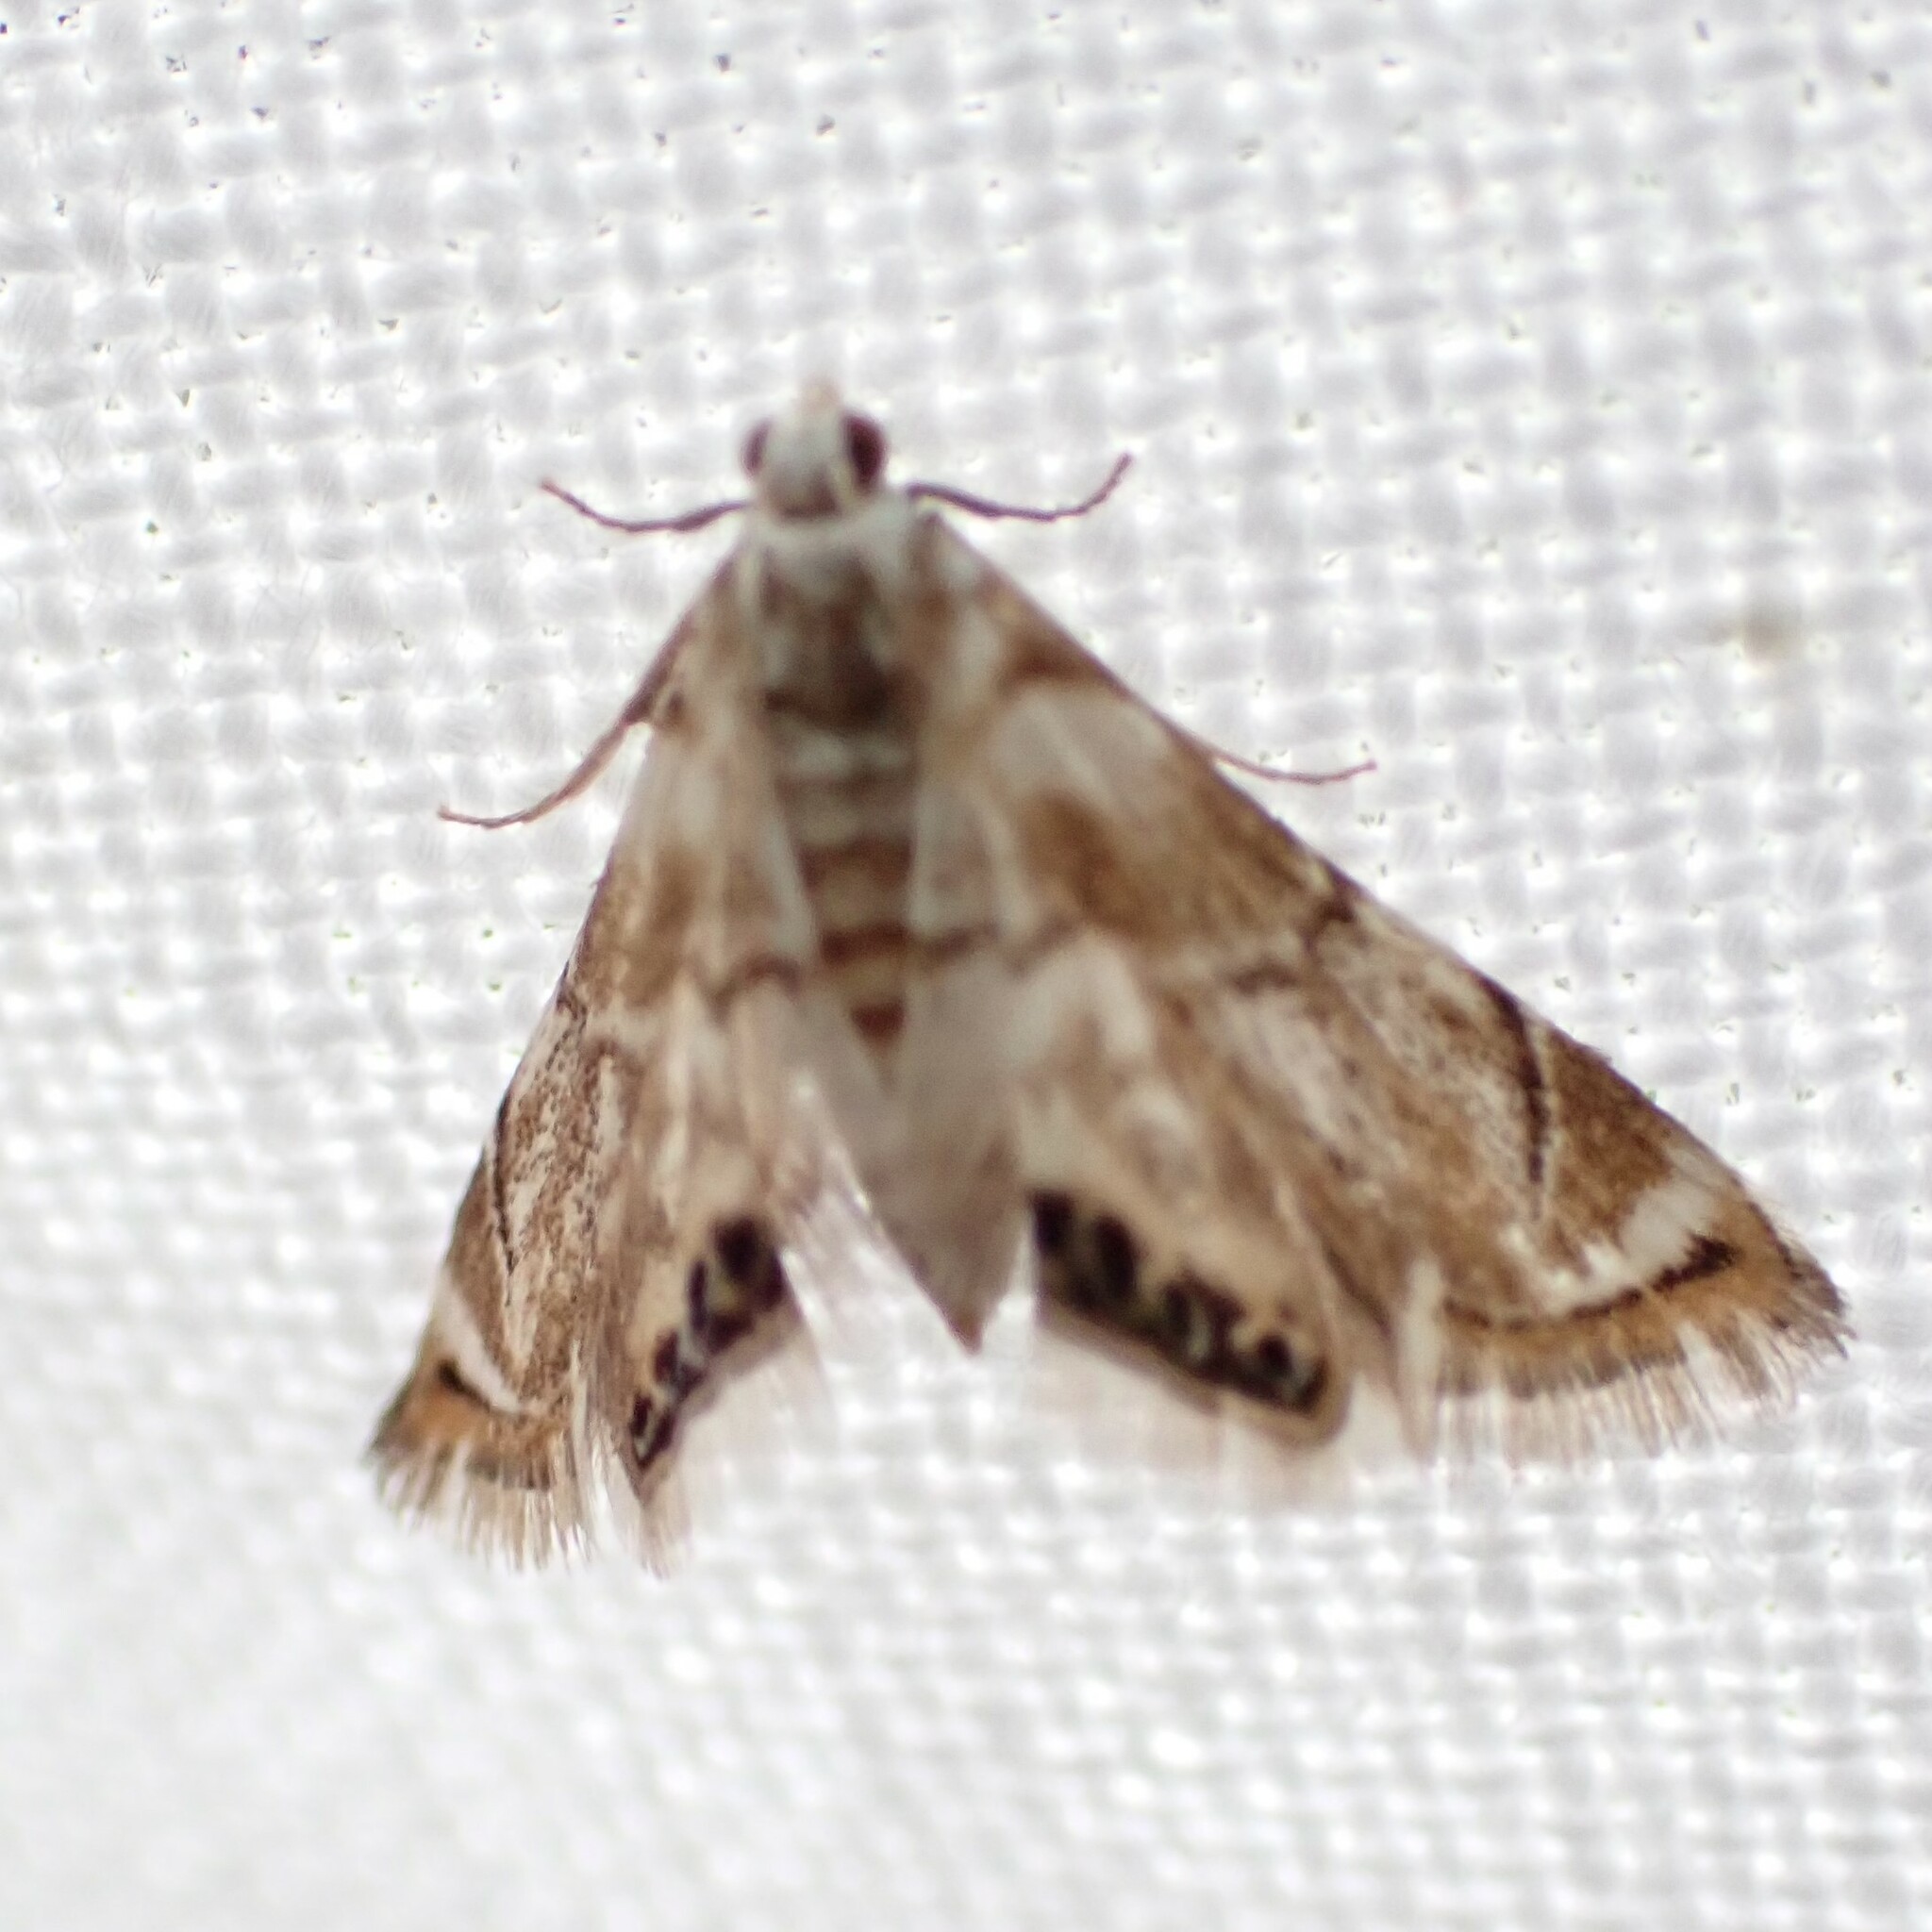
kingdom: Animalia
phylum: Arthropoda
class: Insecta
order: Lepidoptera
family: Crambidae
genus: Eoparargyractis
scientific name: Eoparargyractis plevie
